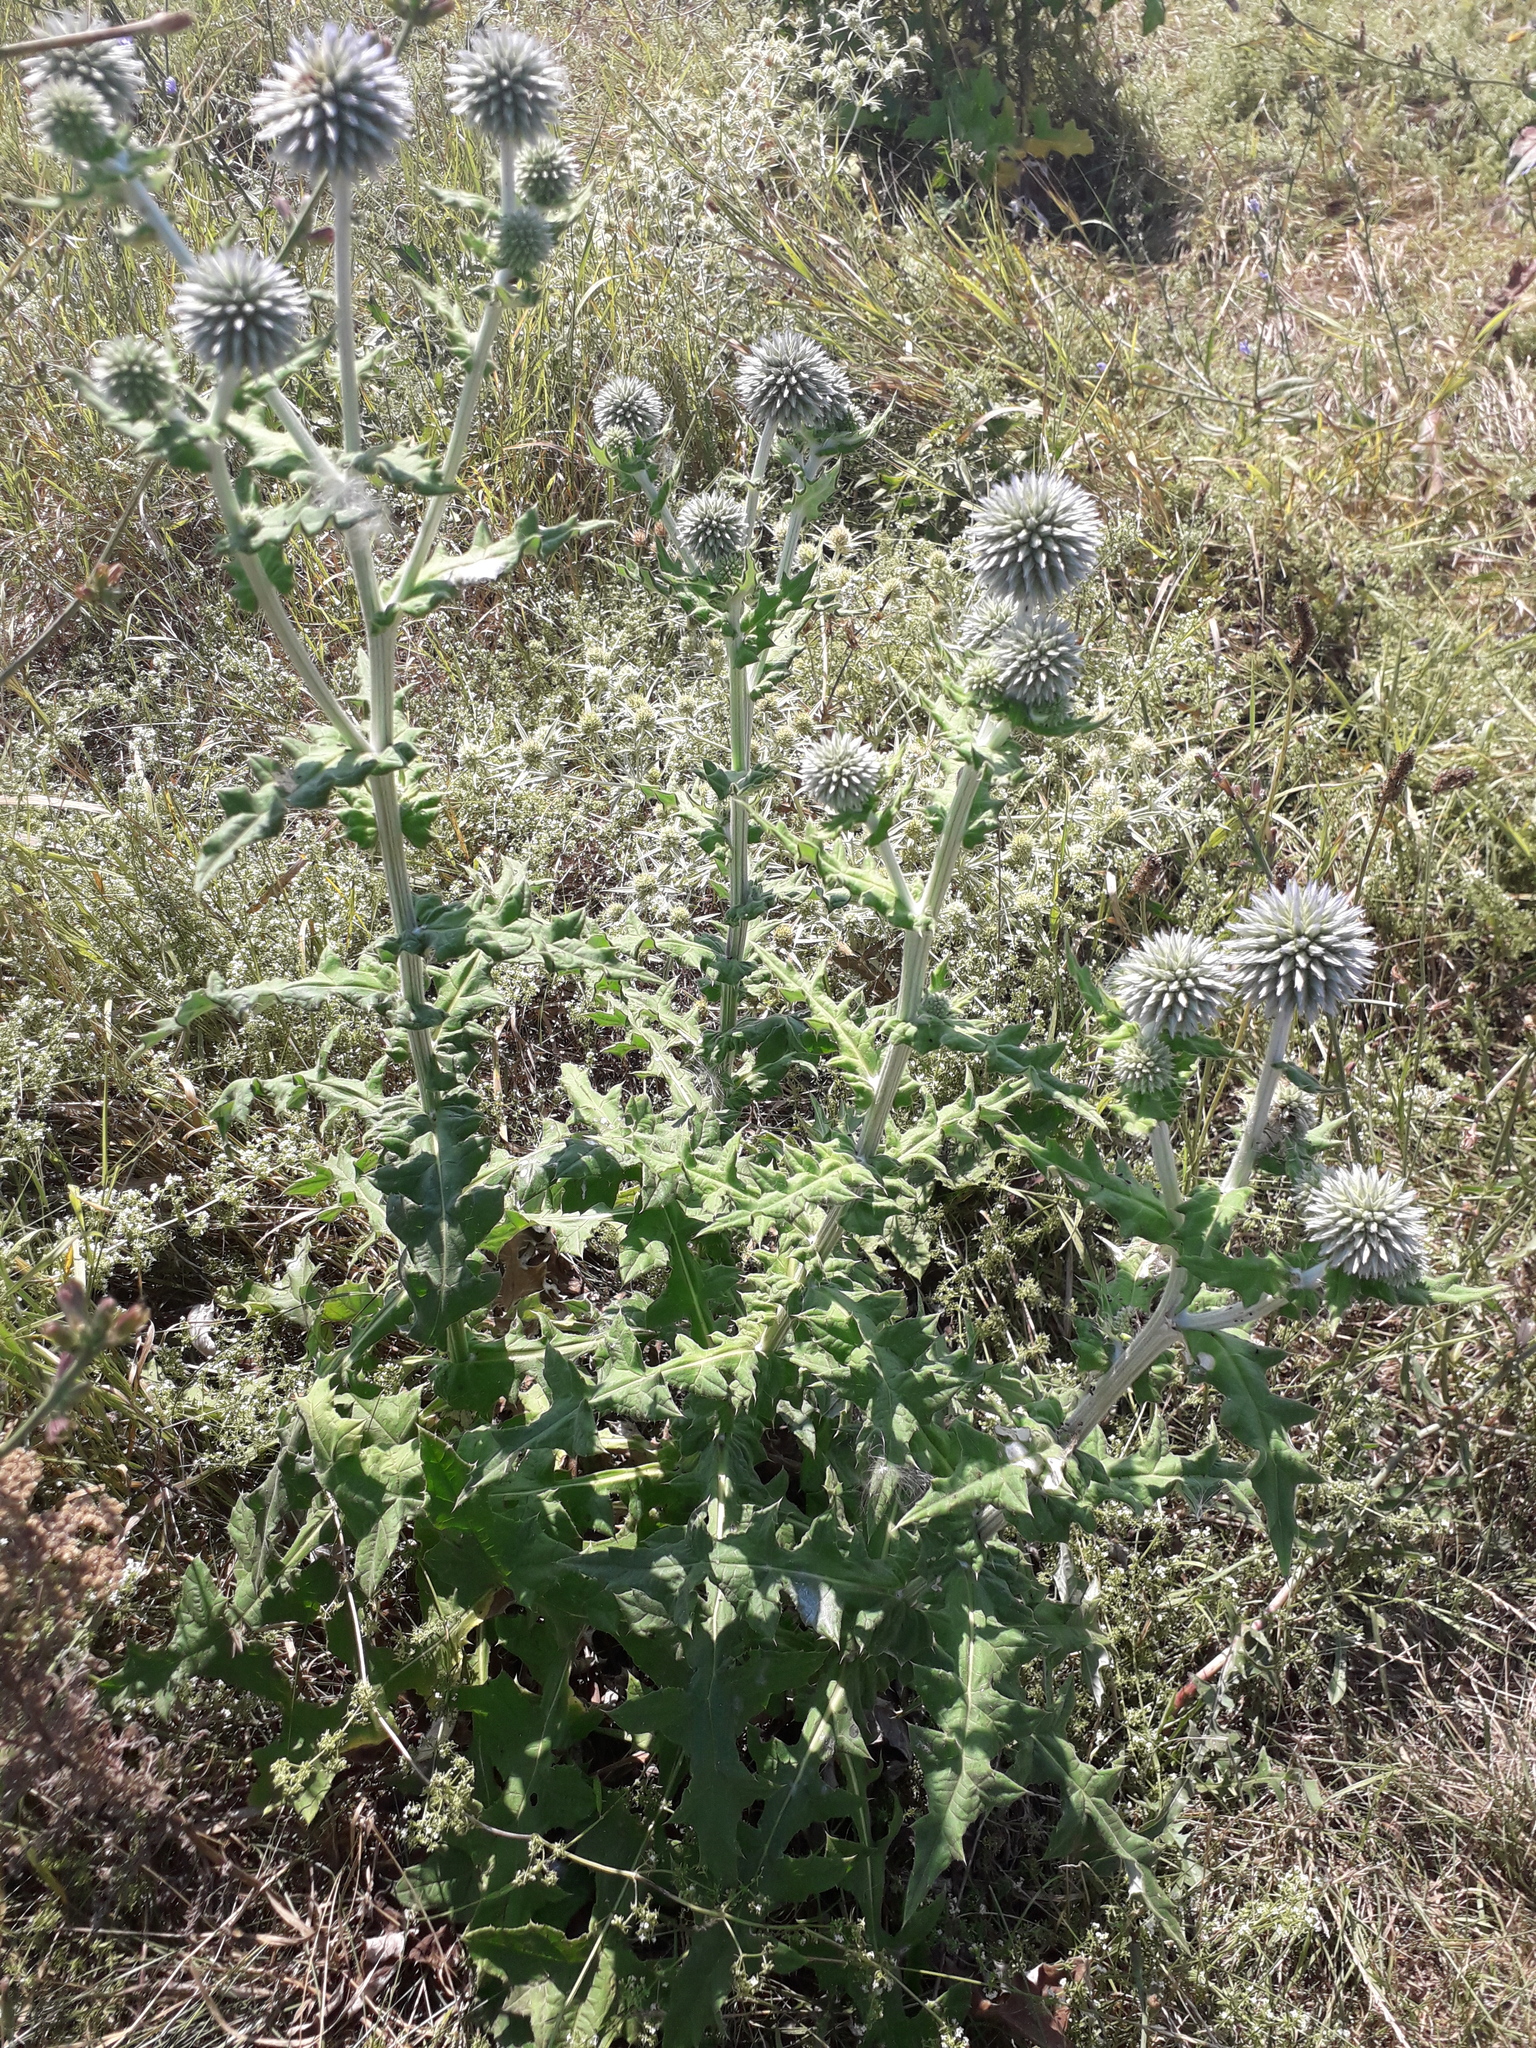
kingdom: Plantae
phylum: Tracheophyta
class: Magnoliopsida
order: Asterales
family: Asteraceae
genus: Echinops
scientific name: Echinops sphaerocephalus
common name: Glandular globe-thistle
